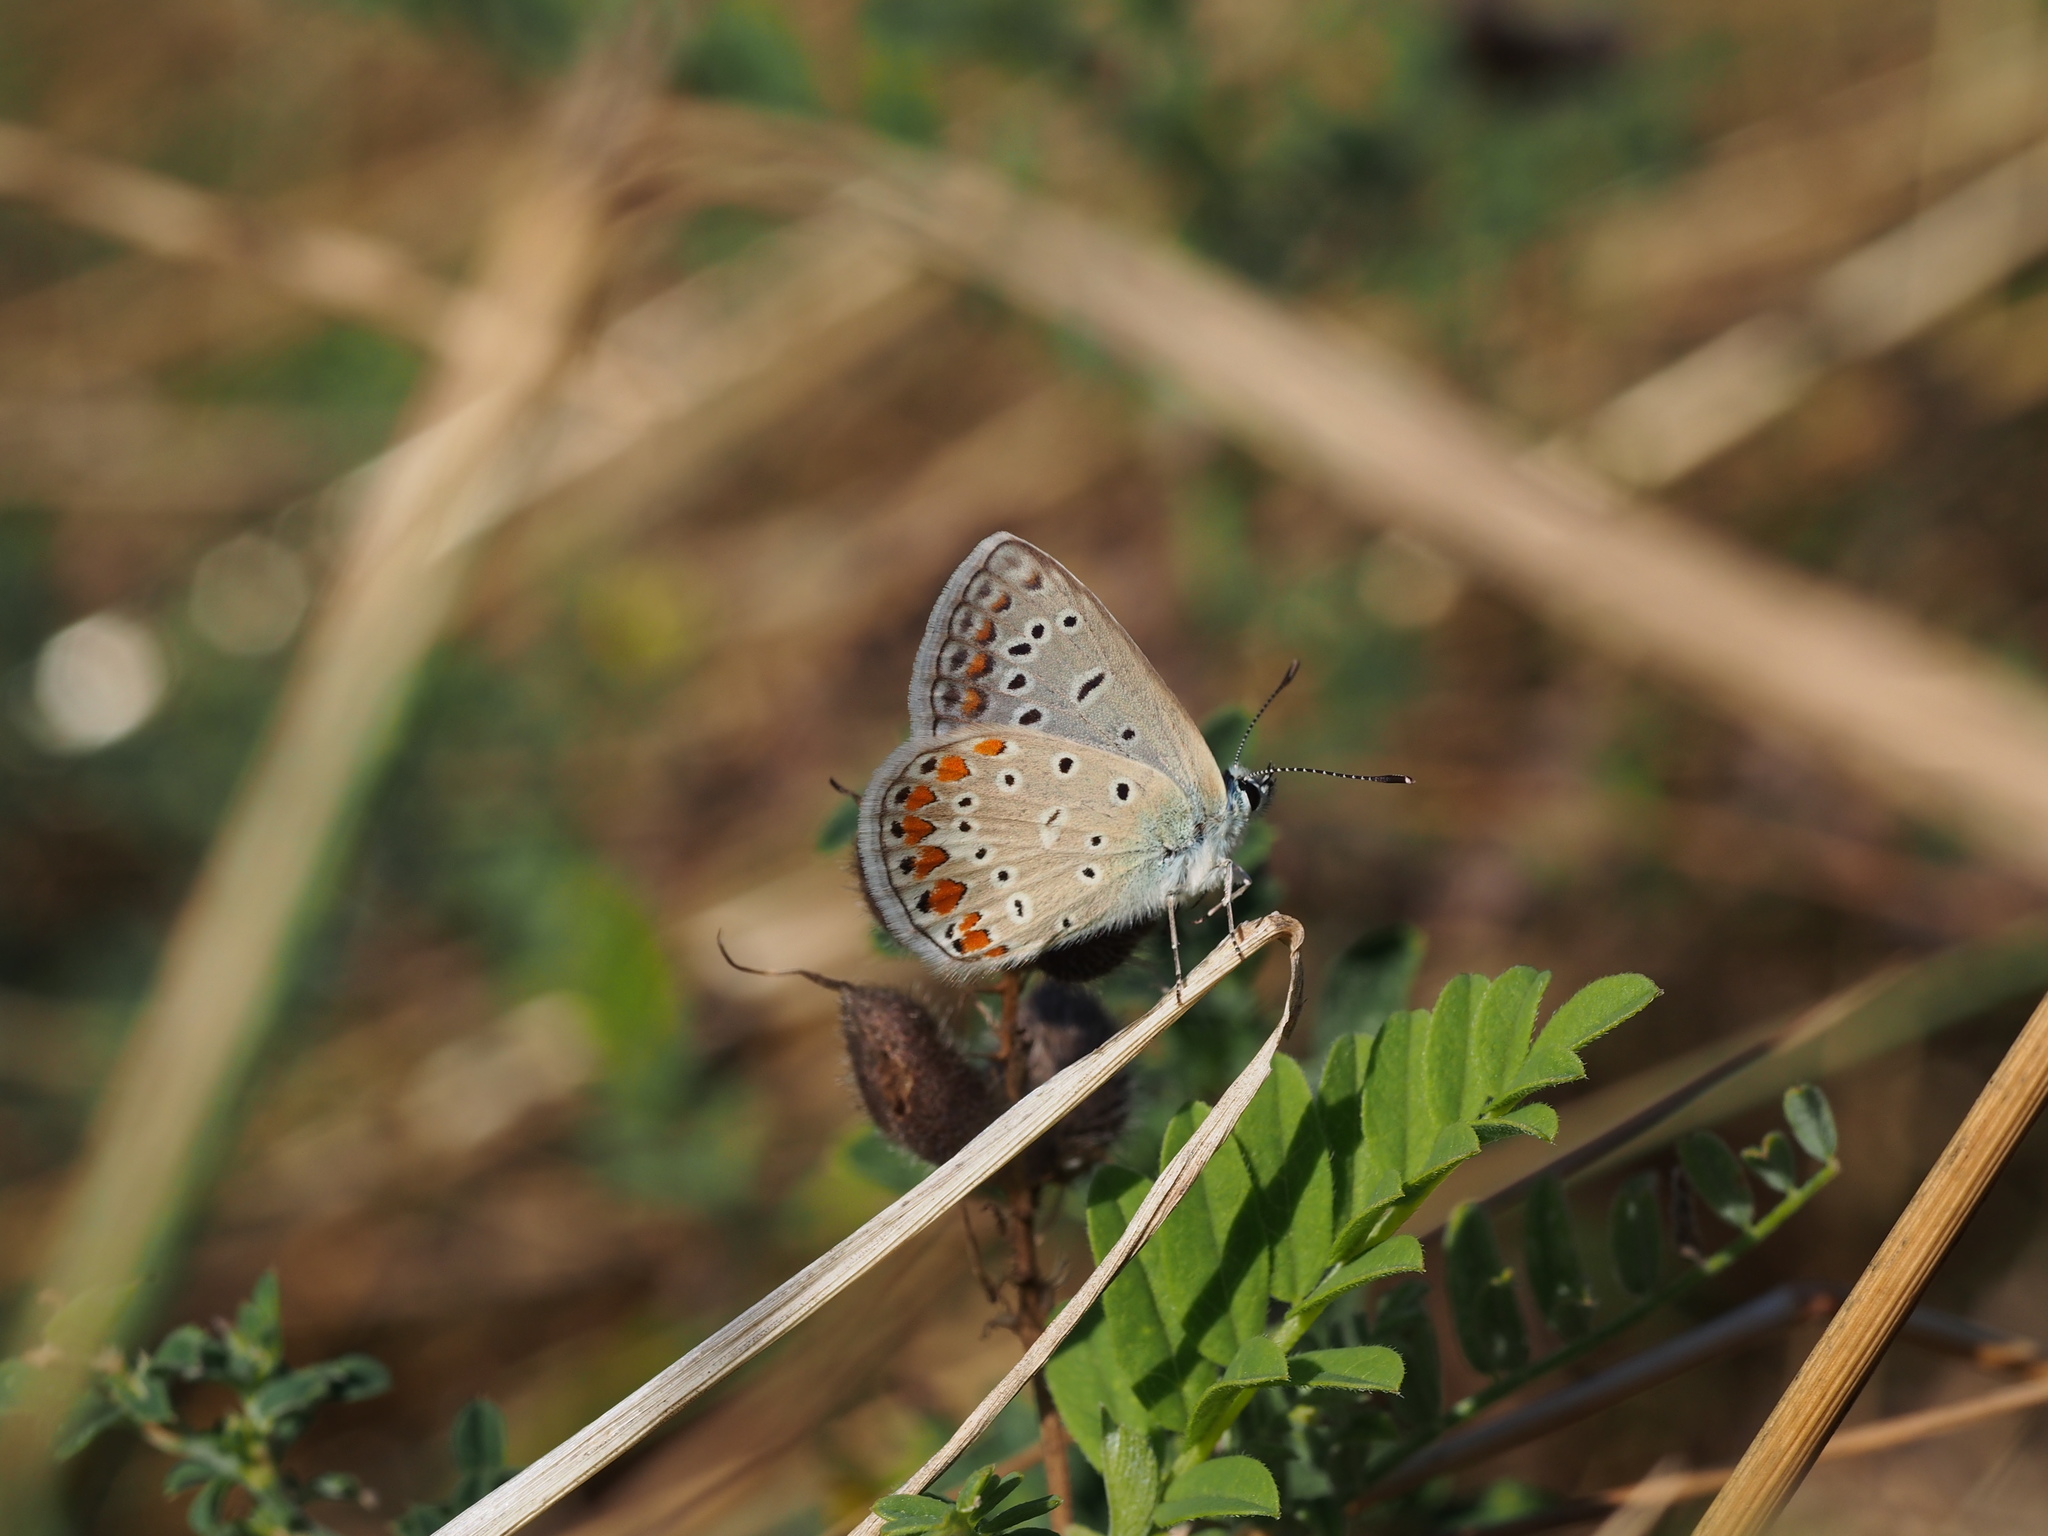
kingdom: Animalia
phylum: Arthropoda
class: Insecta
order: Lepidoptera
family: Lycaenidae
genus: Polyommatus
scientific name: Polyommatus icarus
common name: Common blue
